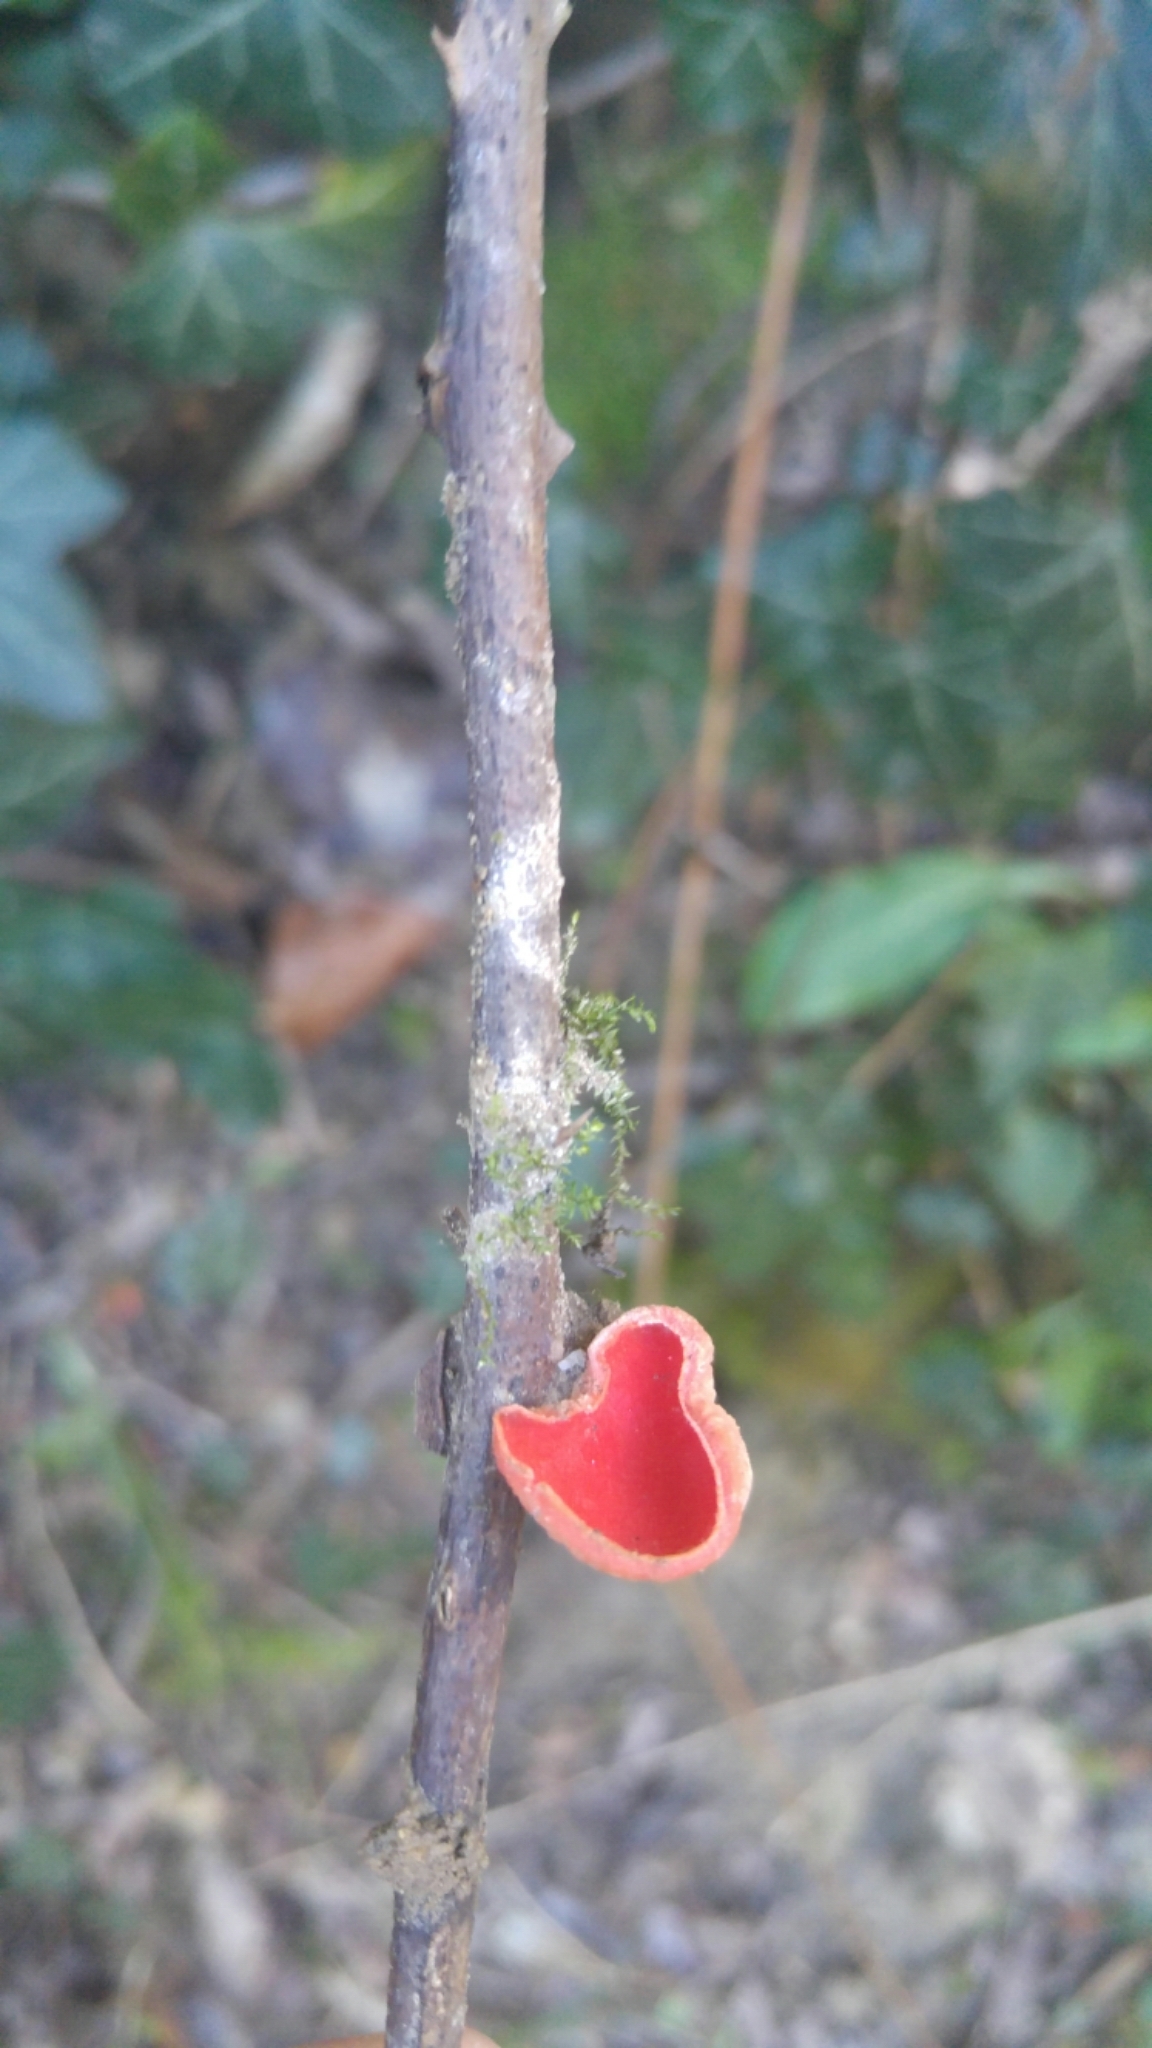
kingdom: Fungi
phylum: Ascomycota
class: Pezizomycetes
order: Pezizales
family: Sarcoscyphaceae
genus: Sarcoscypha
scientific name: Sarcoscypha
